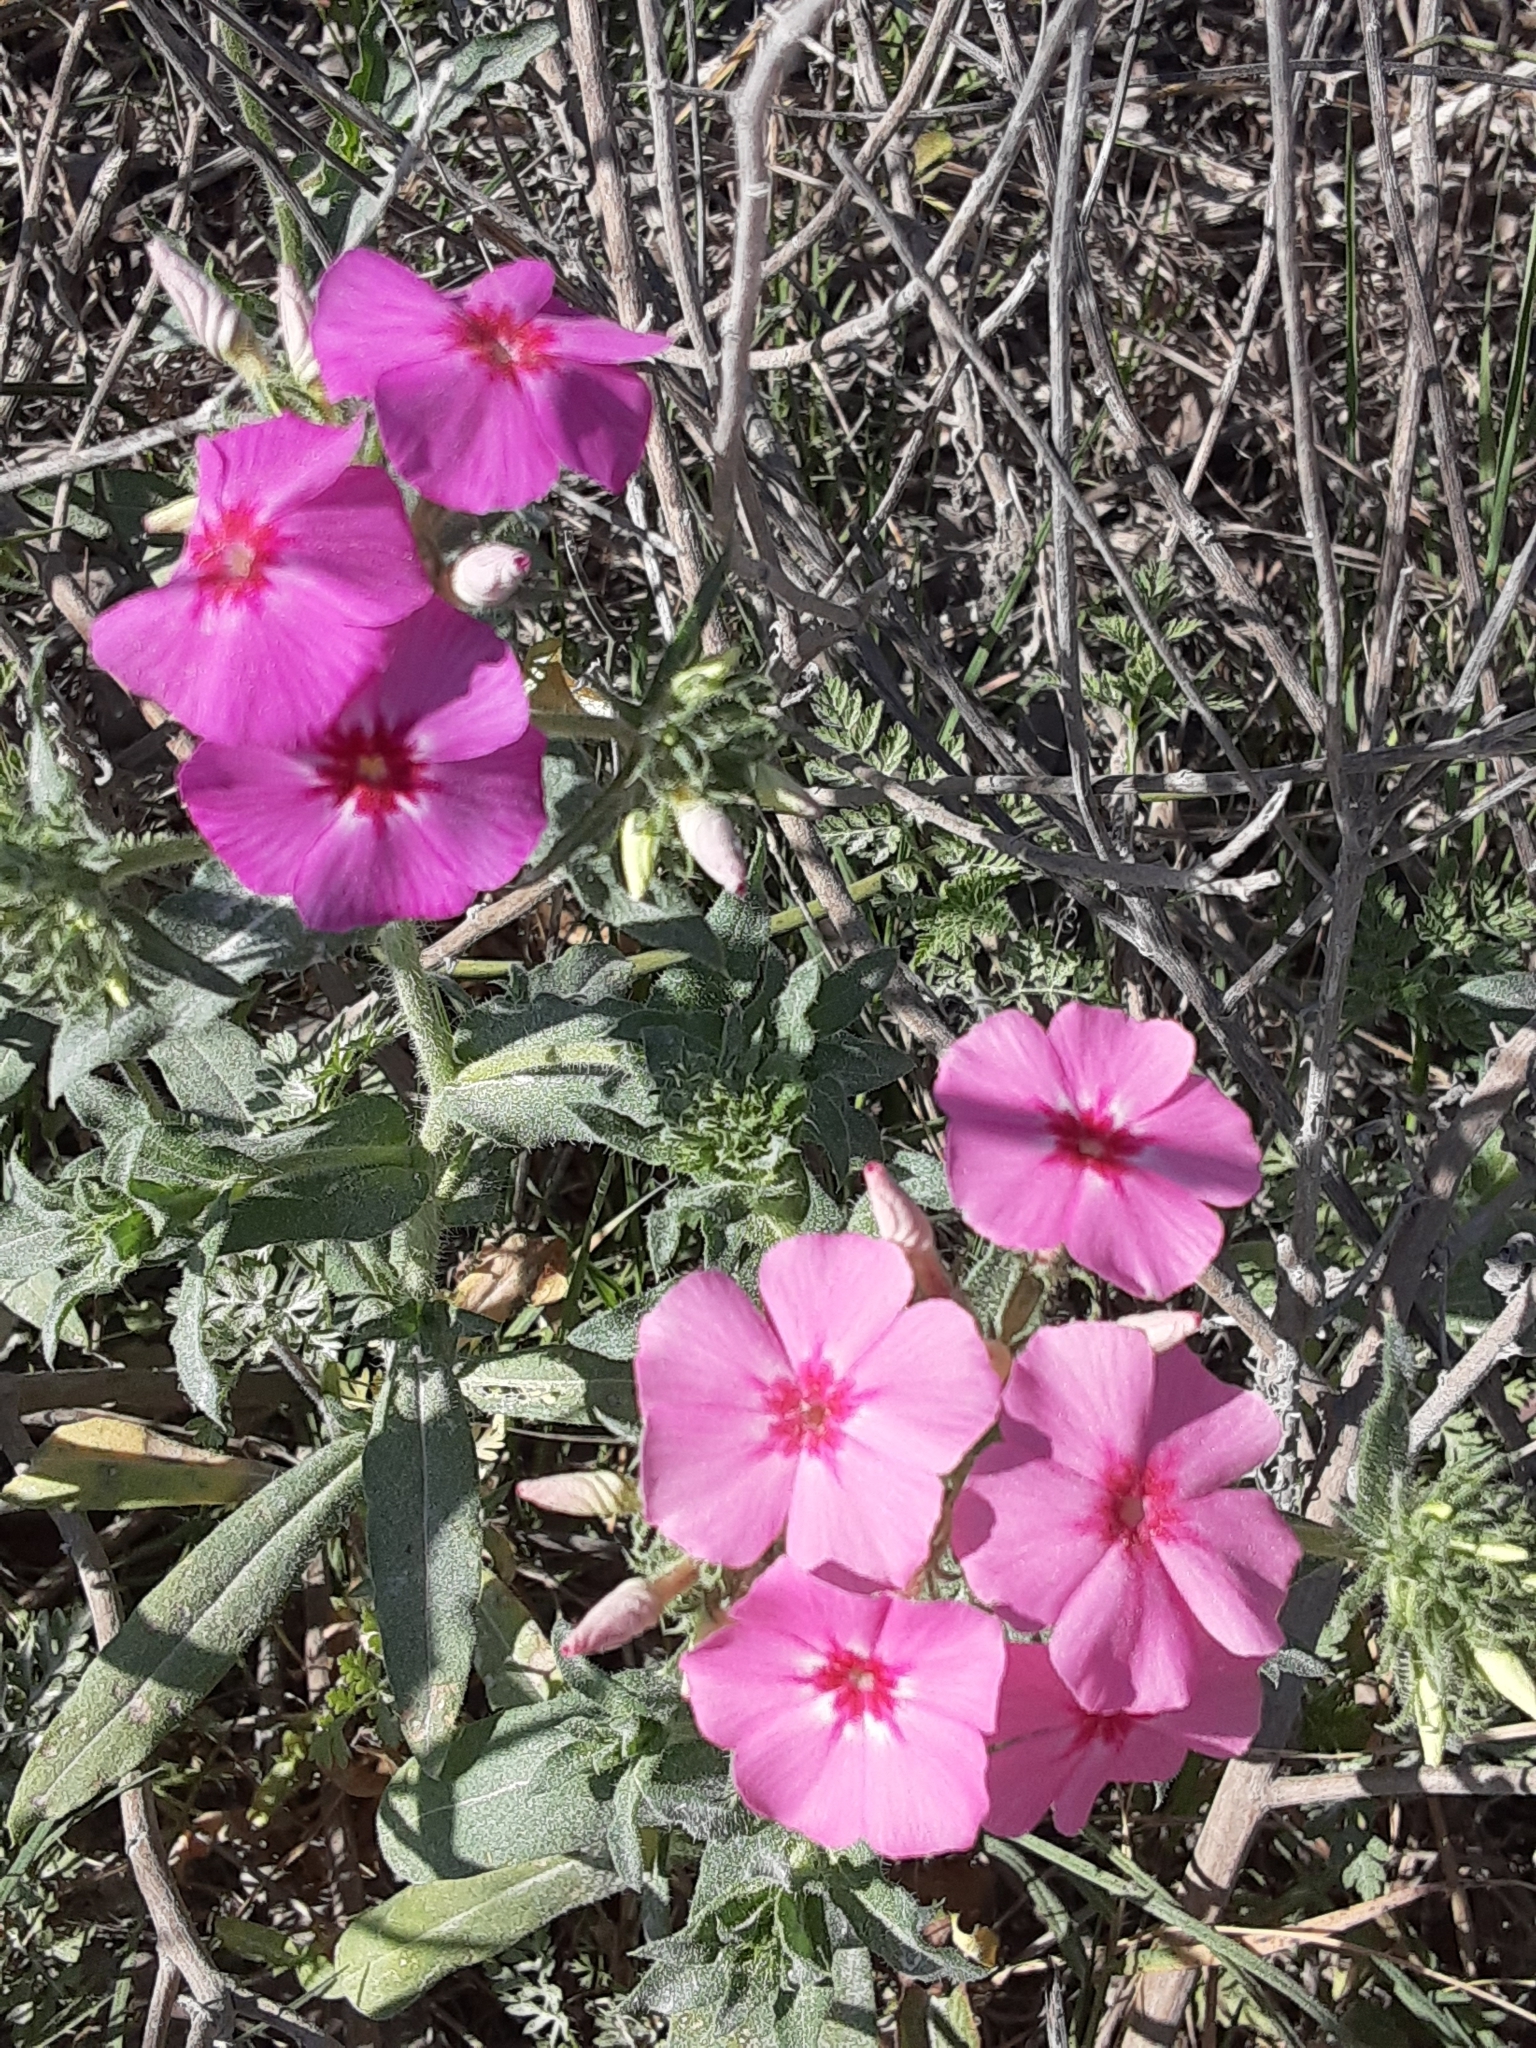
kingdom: Plantae
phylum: Tracheophyta
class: Magnoliopsida
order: Ericales
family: Polemoniaceae
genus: Phlox
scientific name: Phlox drummondii
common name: Drummond's phlox
